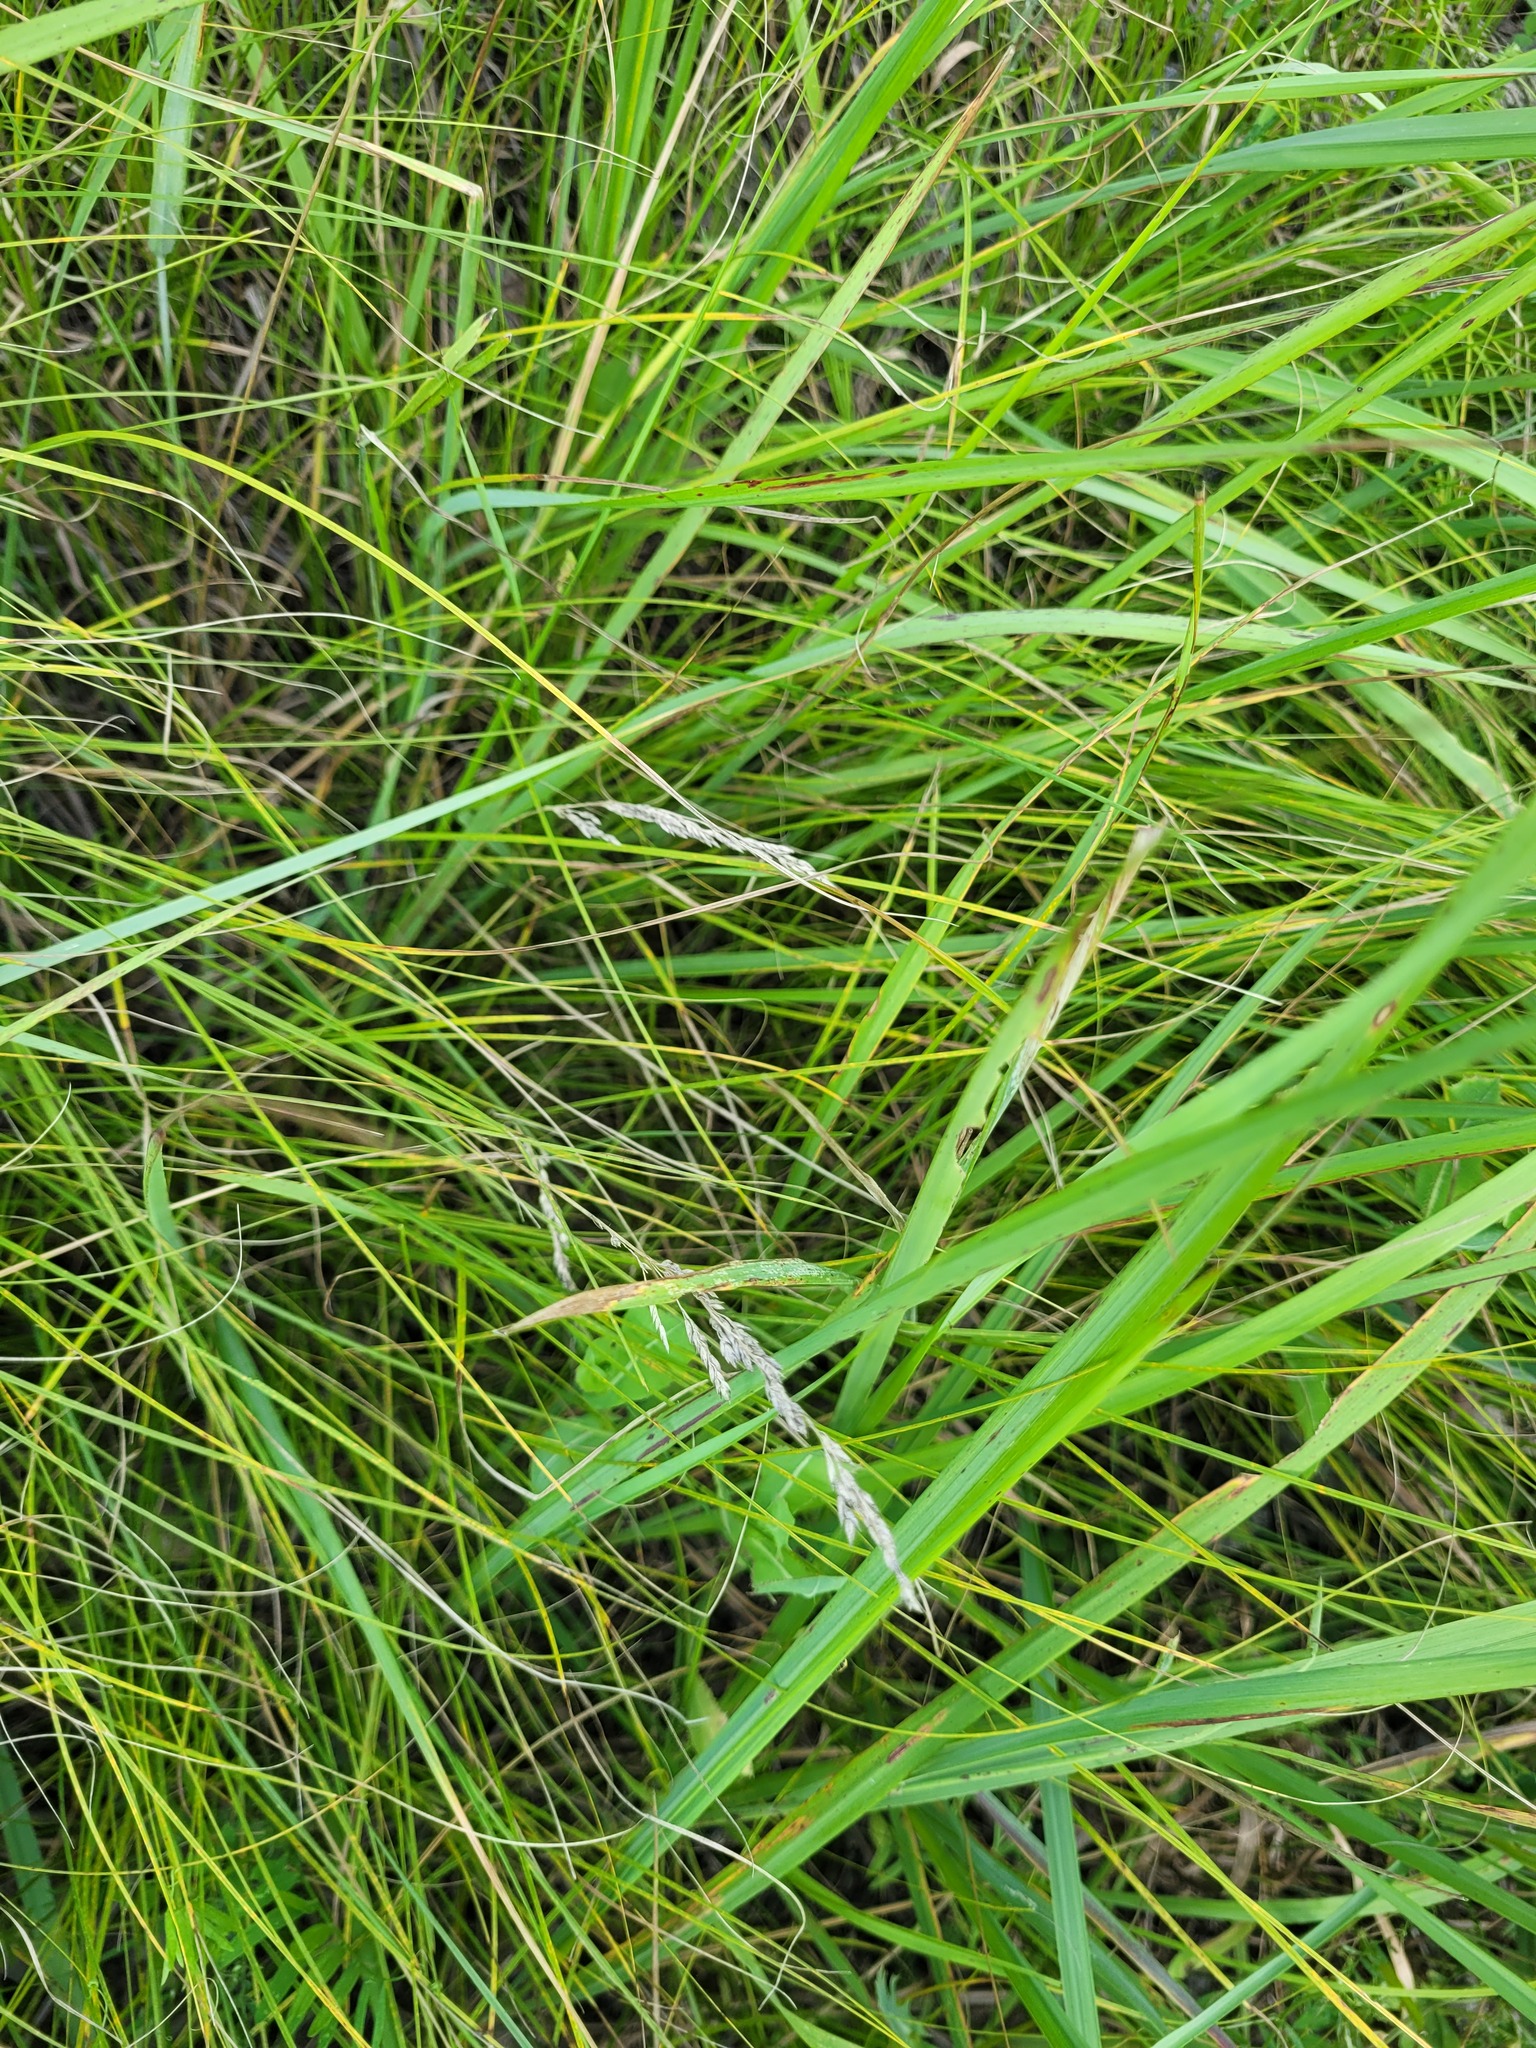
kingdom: Plantae
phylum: Tracheophyta
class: Liliopsida
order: Poales
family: Poaceae
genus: Poa
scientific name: Poa angustifolia
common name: Narrow-leaved meadow-grass
